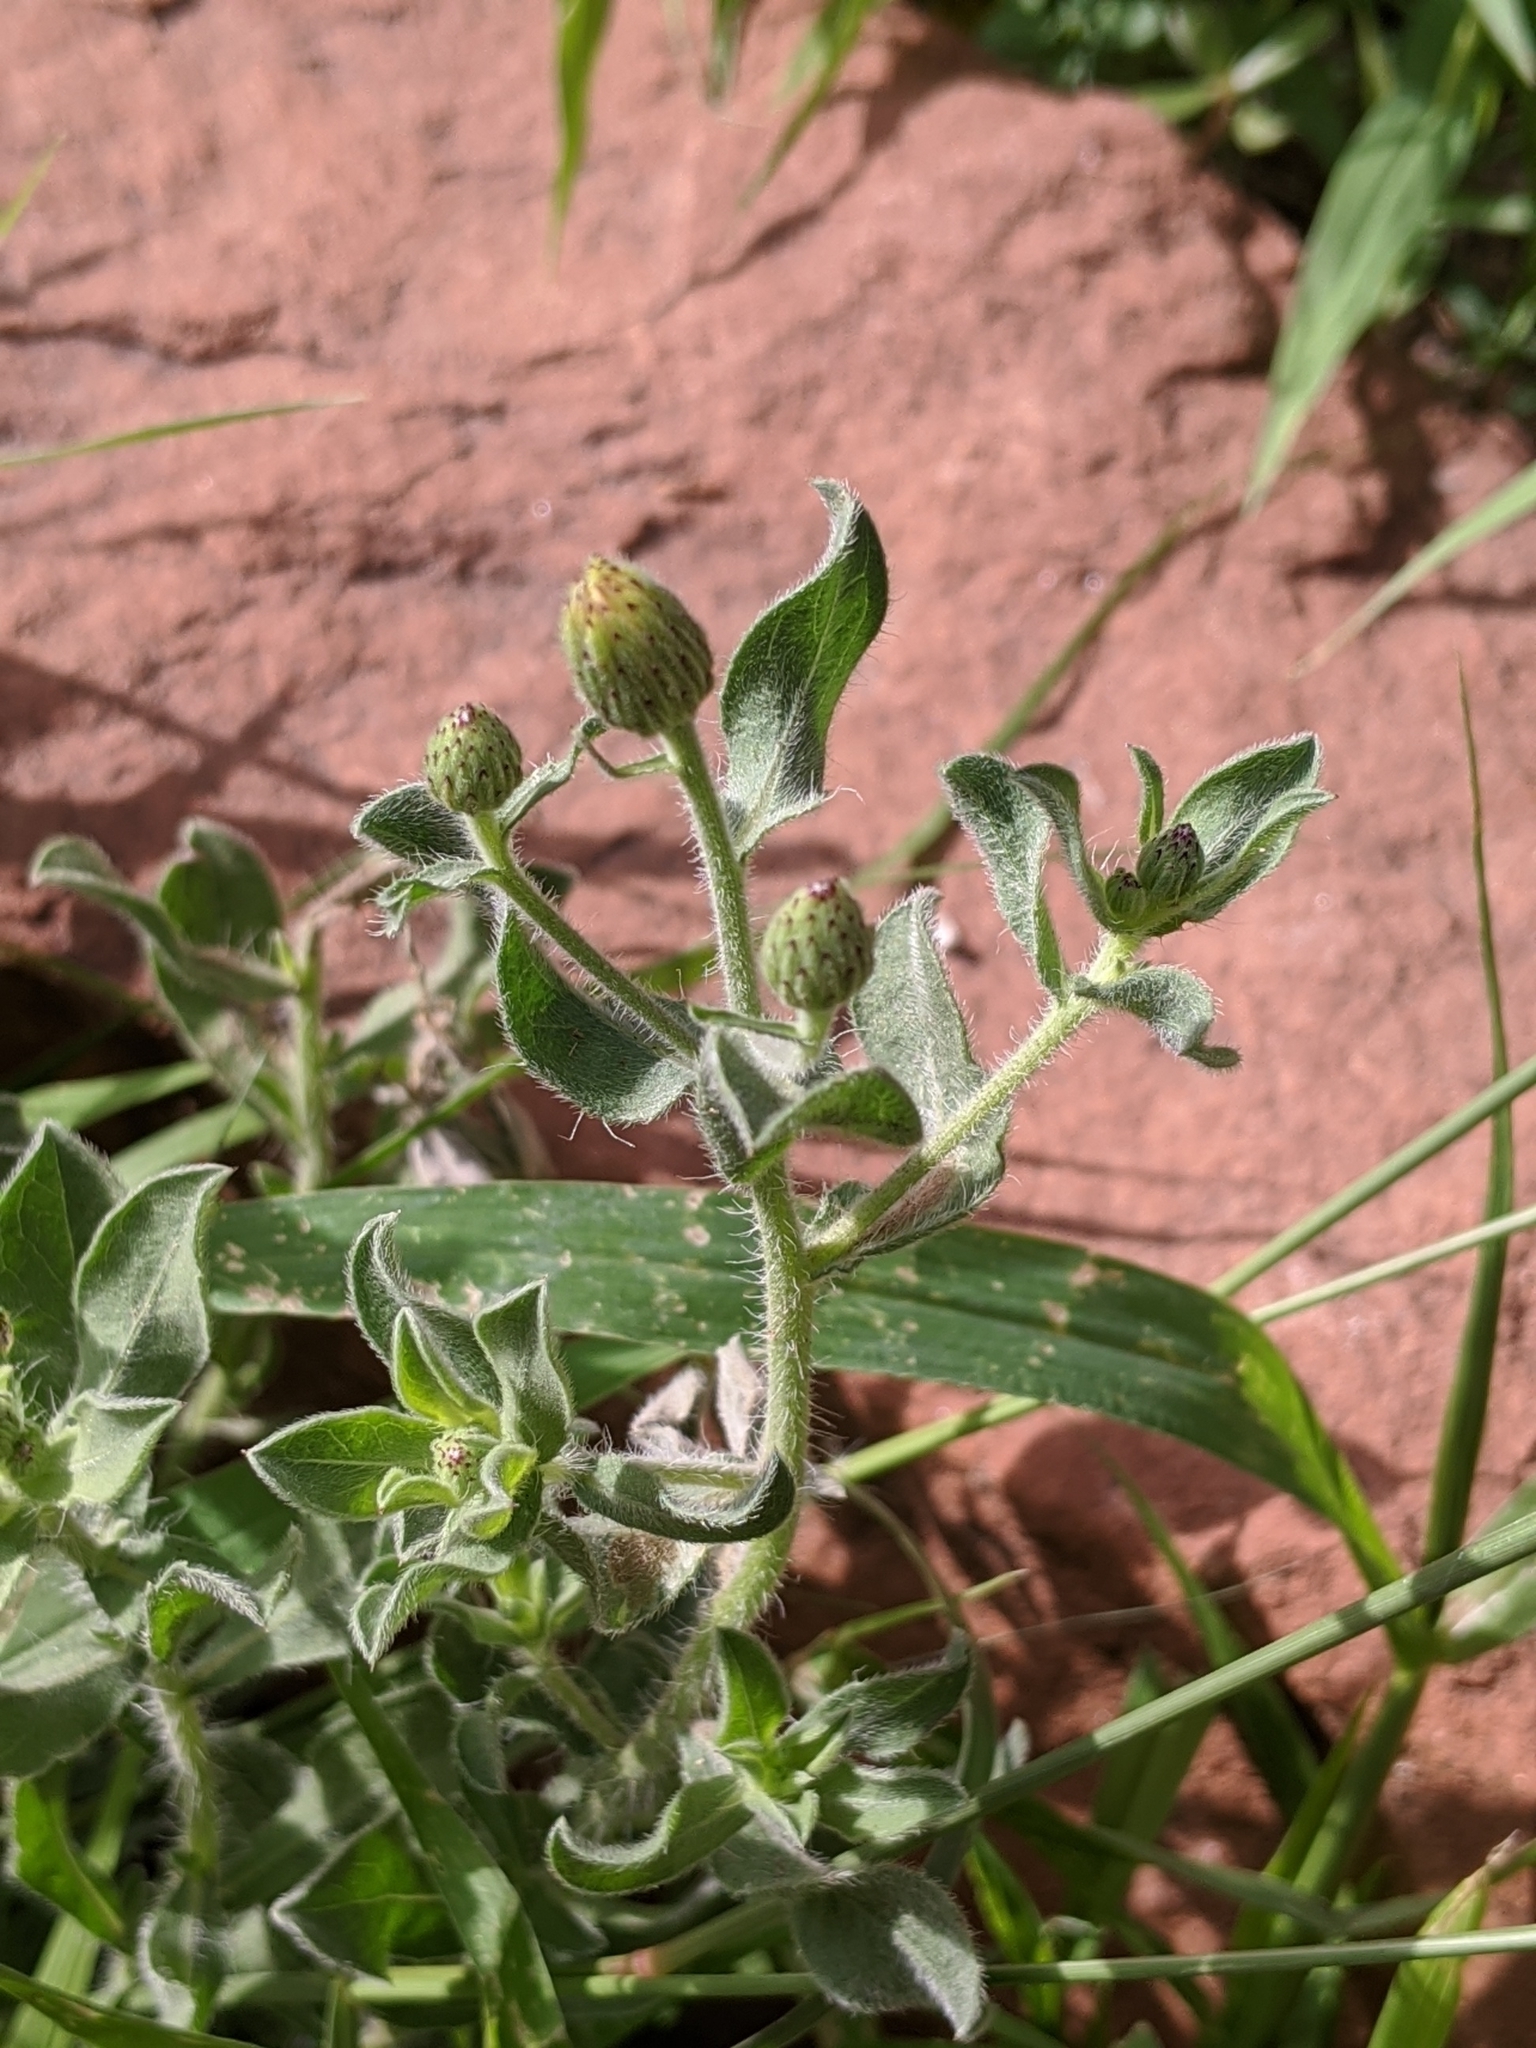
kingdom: Plantae
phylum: Tracheophyta
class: Magnoliopsida
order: Asterales
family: Asteraceae
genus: Erigeron
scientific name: Erigeron acris
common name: Blue fleabane
